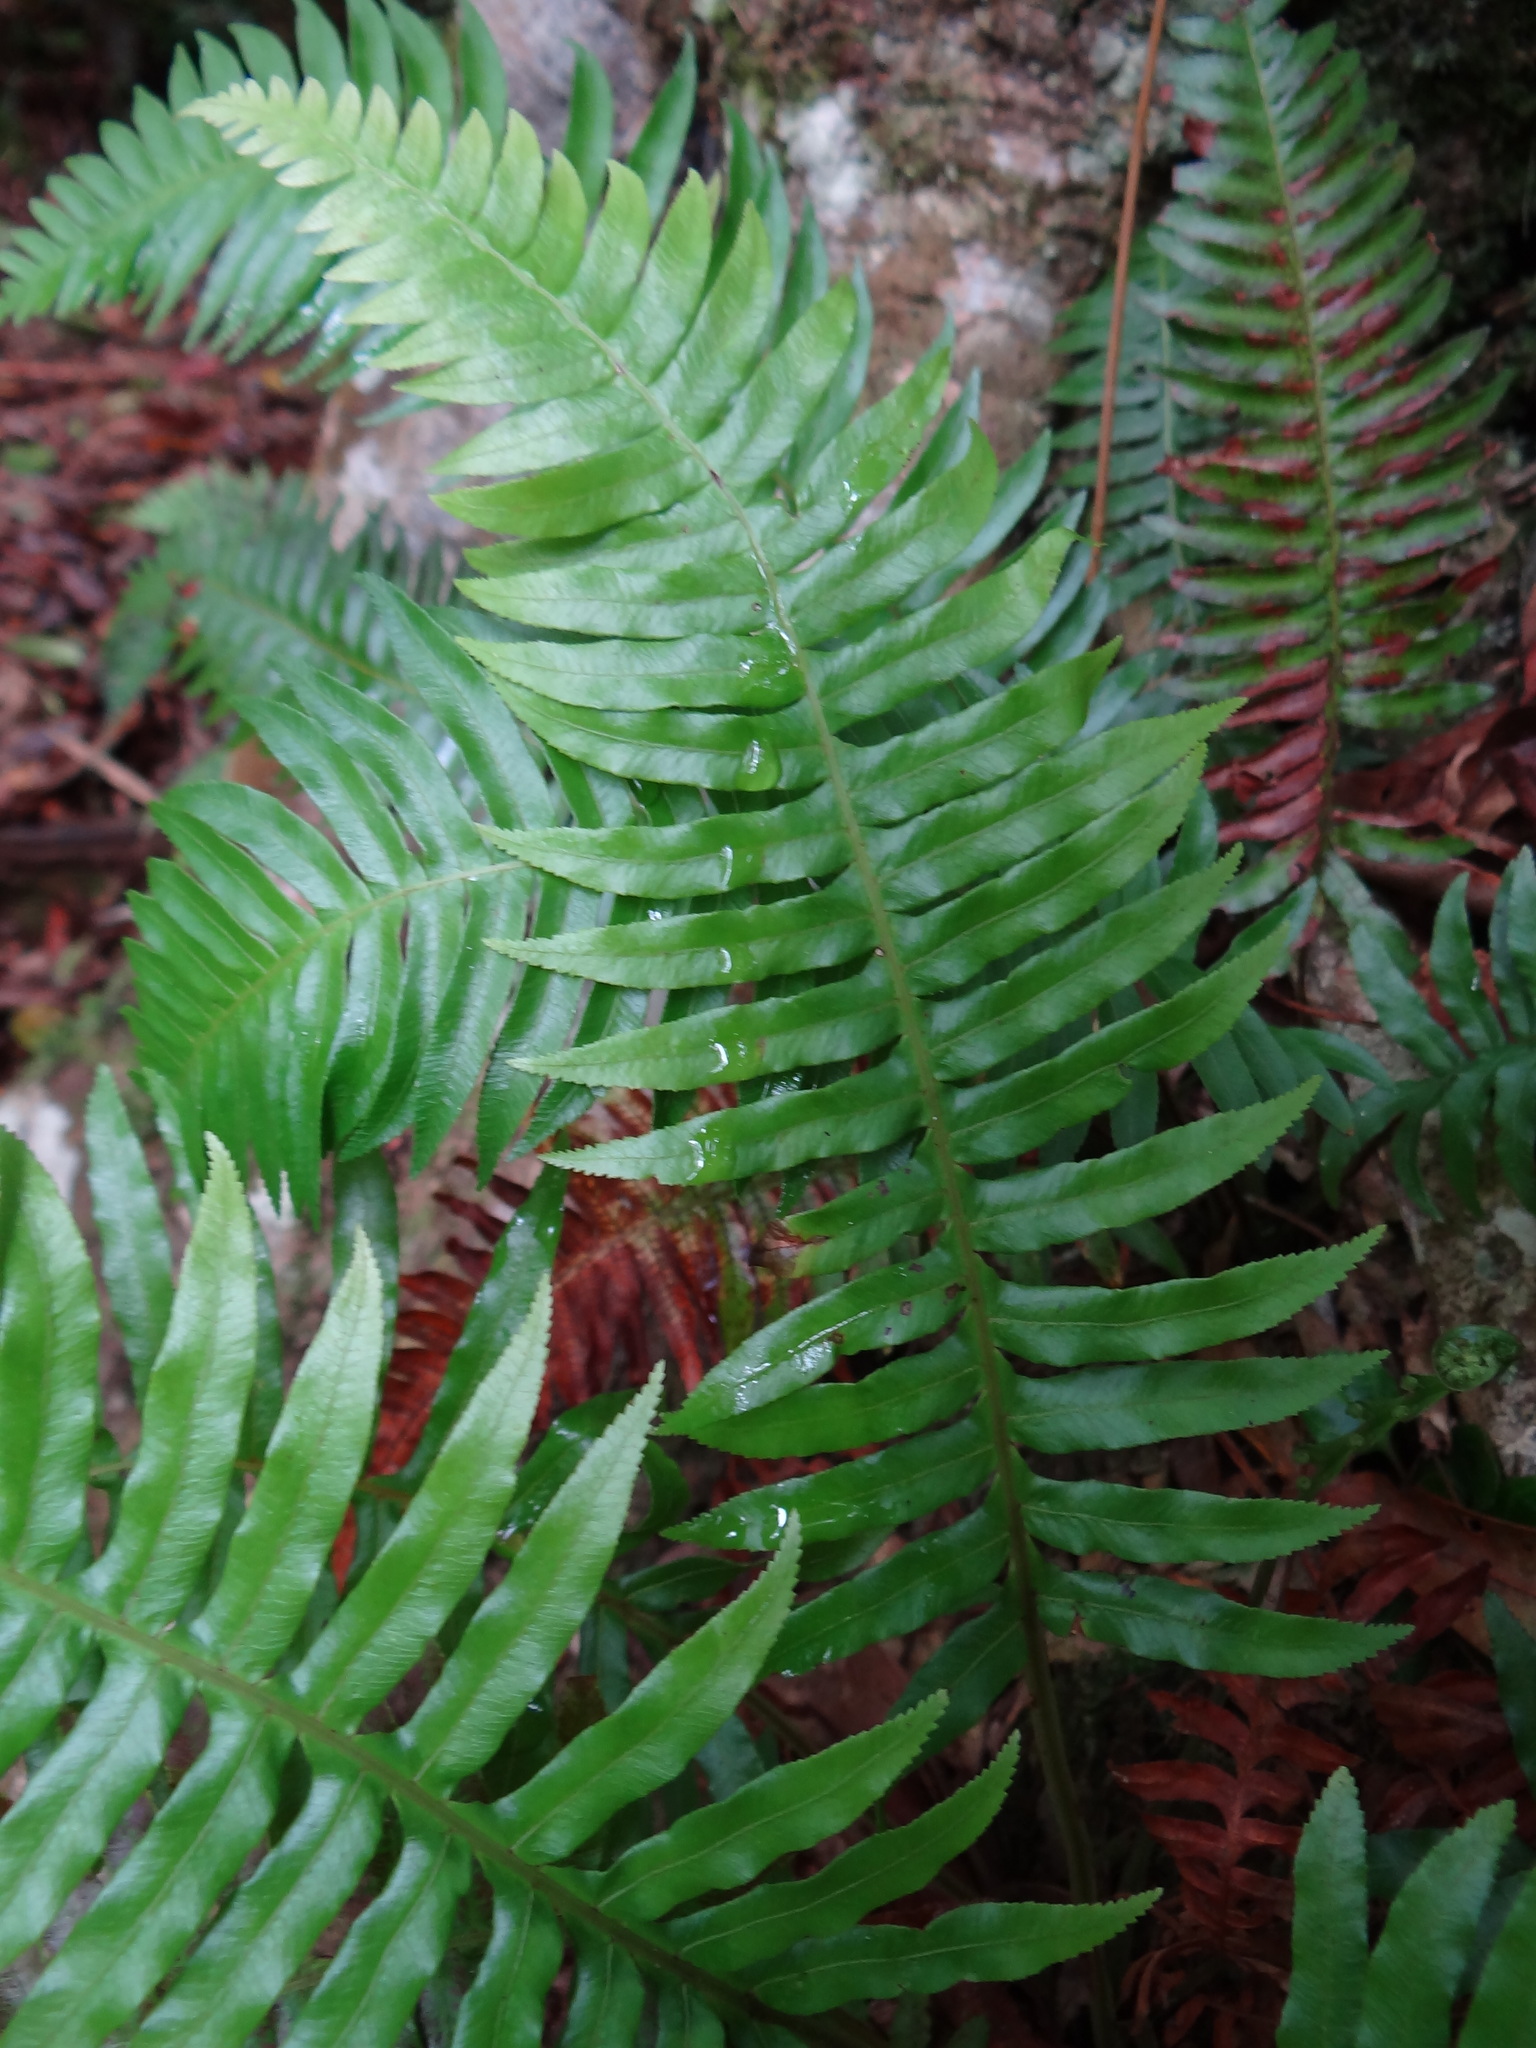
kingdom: Plantae
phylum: Tracheophyta
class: Polypodiopsida
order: Cyatheales
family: Plagiogyriaceae
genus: Plagiogyria
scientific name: Plagiogyria falcata
